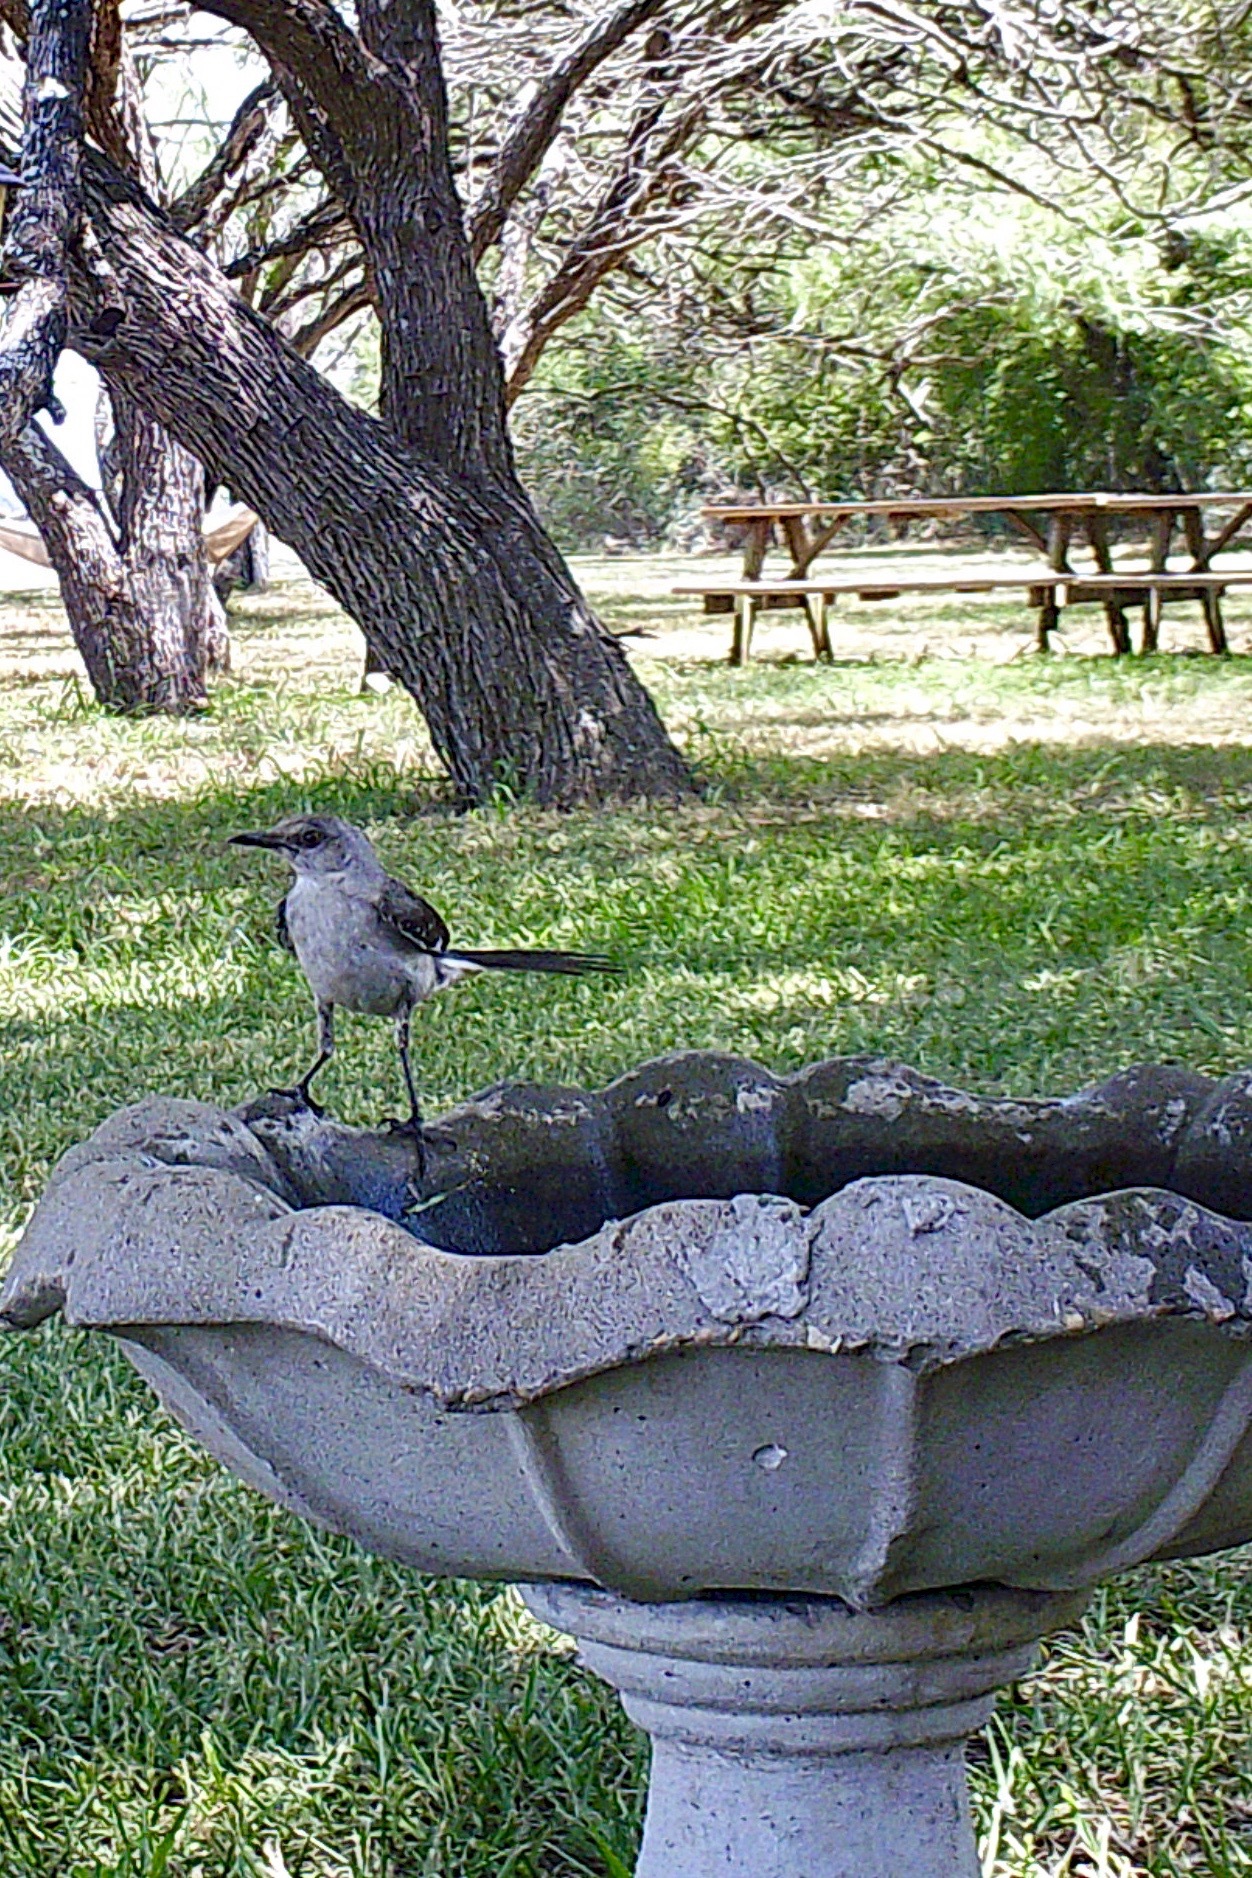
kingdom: Animalia
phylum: Chordata
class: Aves
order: Passeriformes
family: Mimidae
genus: Mimus
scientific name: Mimus polyglottos
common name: Northern mockingbird
